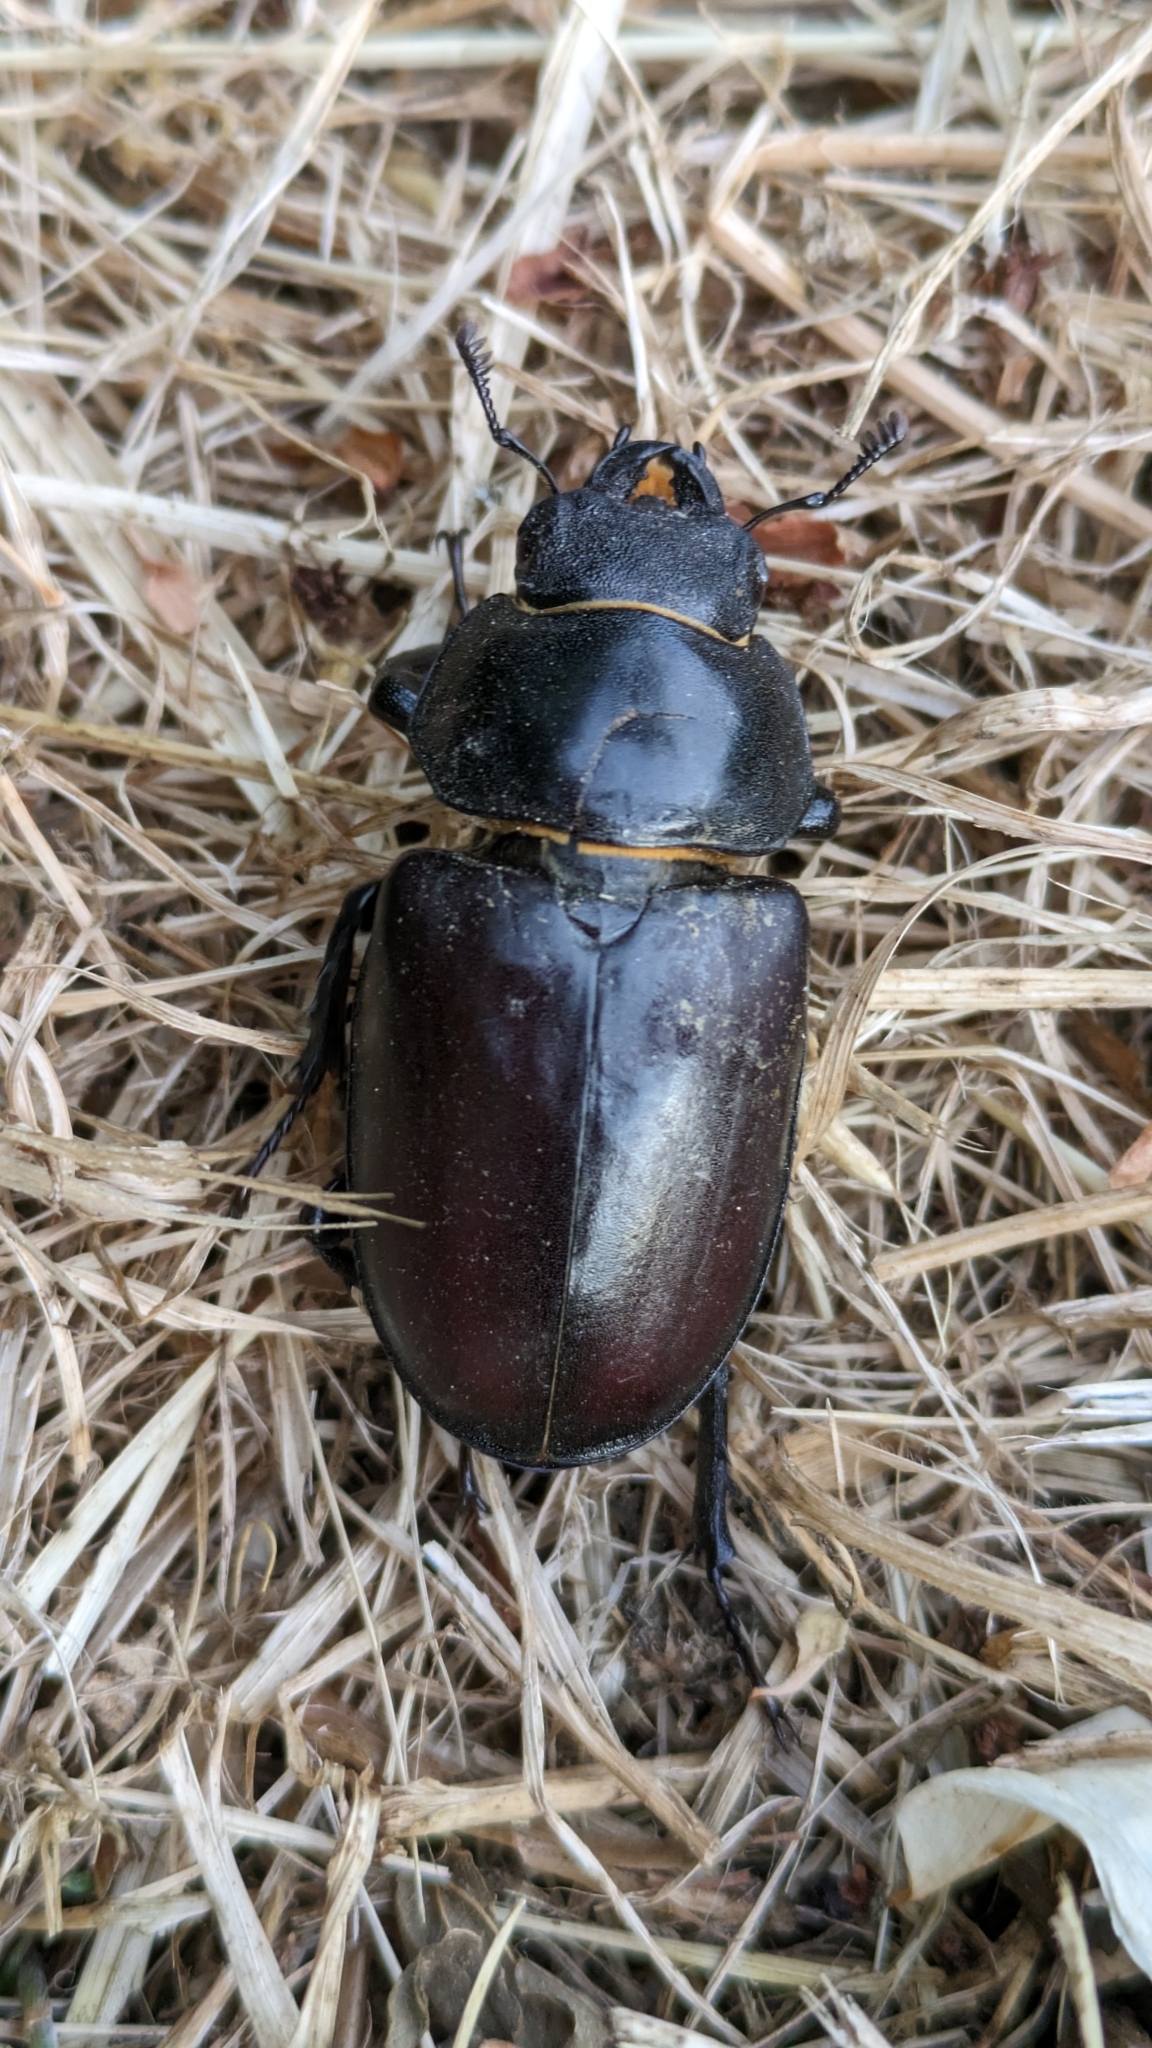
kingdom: Animalia
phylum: Arthropoda
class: Insecta
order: Coleoptera
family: Lucanidae
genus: Lucanus
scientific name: Lucanus cervus
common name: Stag beetle
